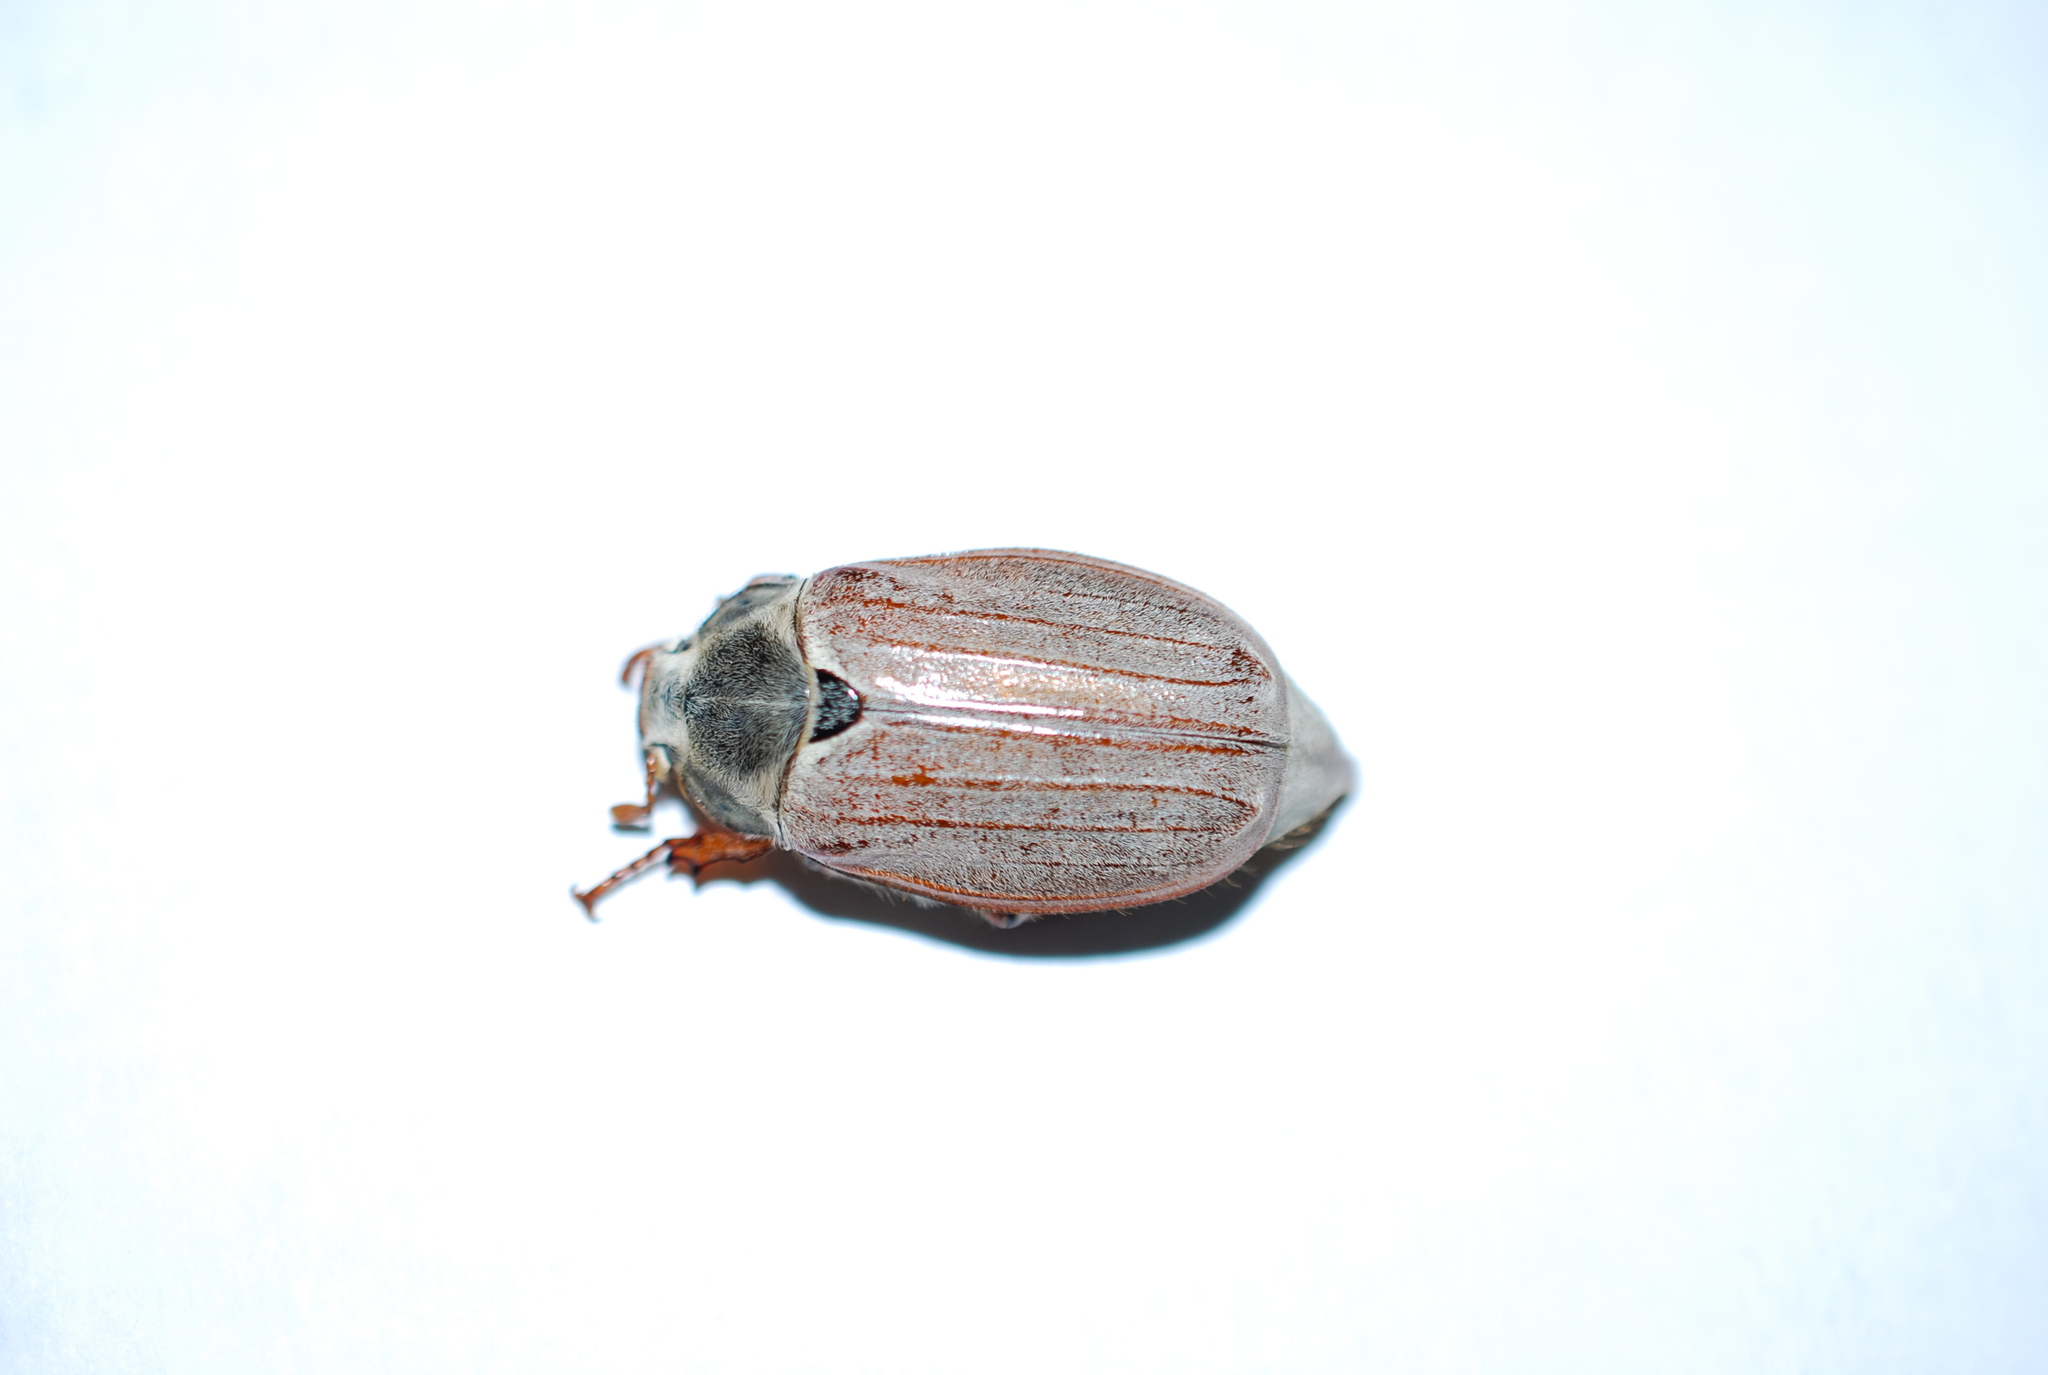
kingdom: Animalia
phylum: Arthropoda
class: Insecta
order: Coleoptera
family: Scarabaeidae
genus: Melolontha
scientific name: Melolontha melolontha
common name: Cockchafer maybeetle
